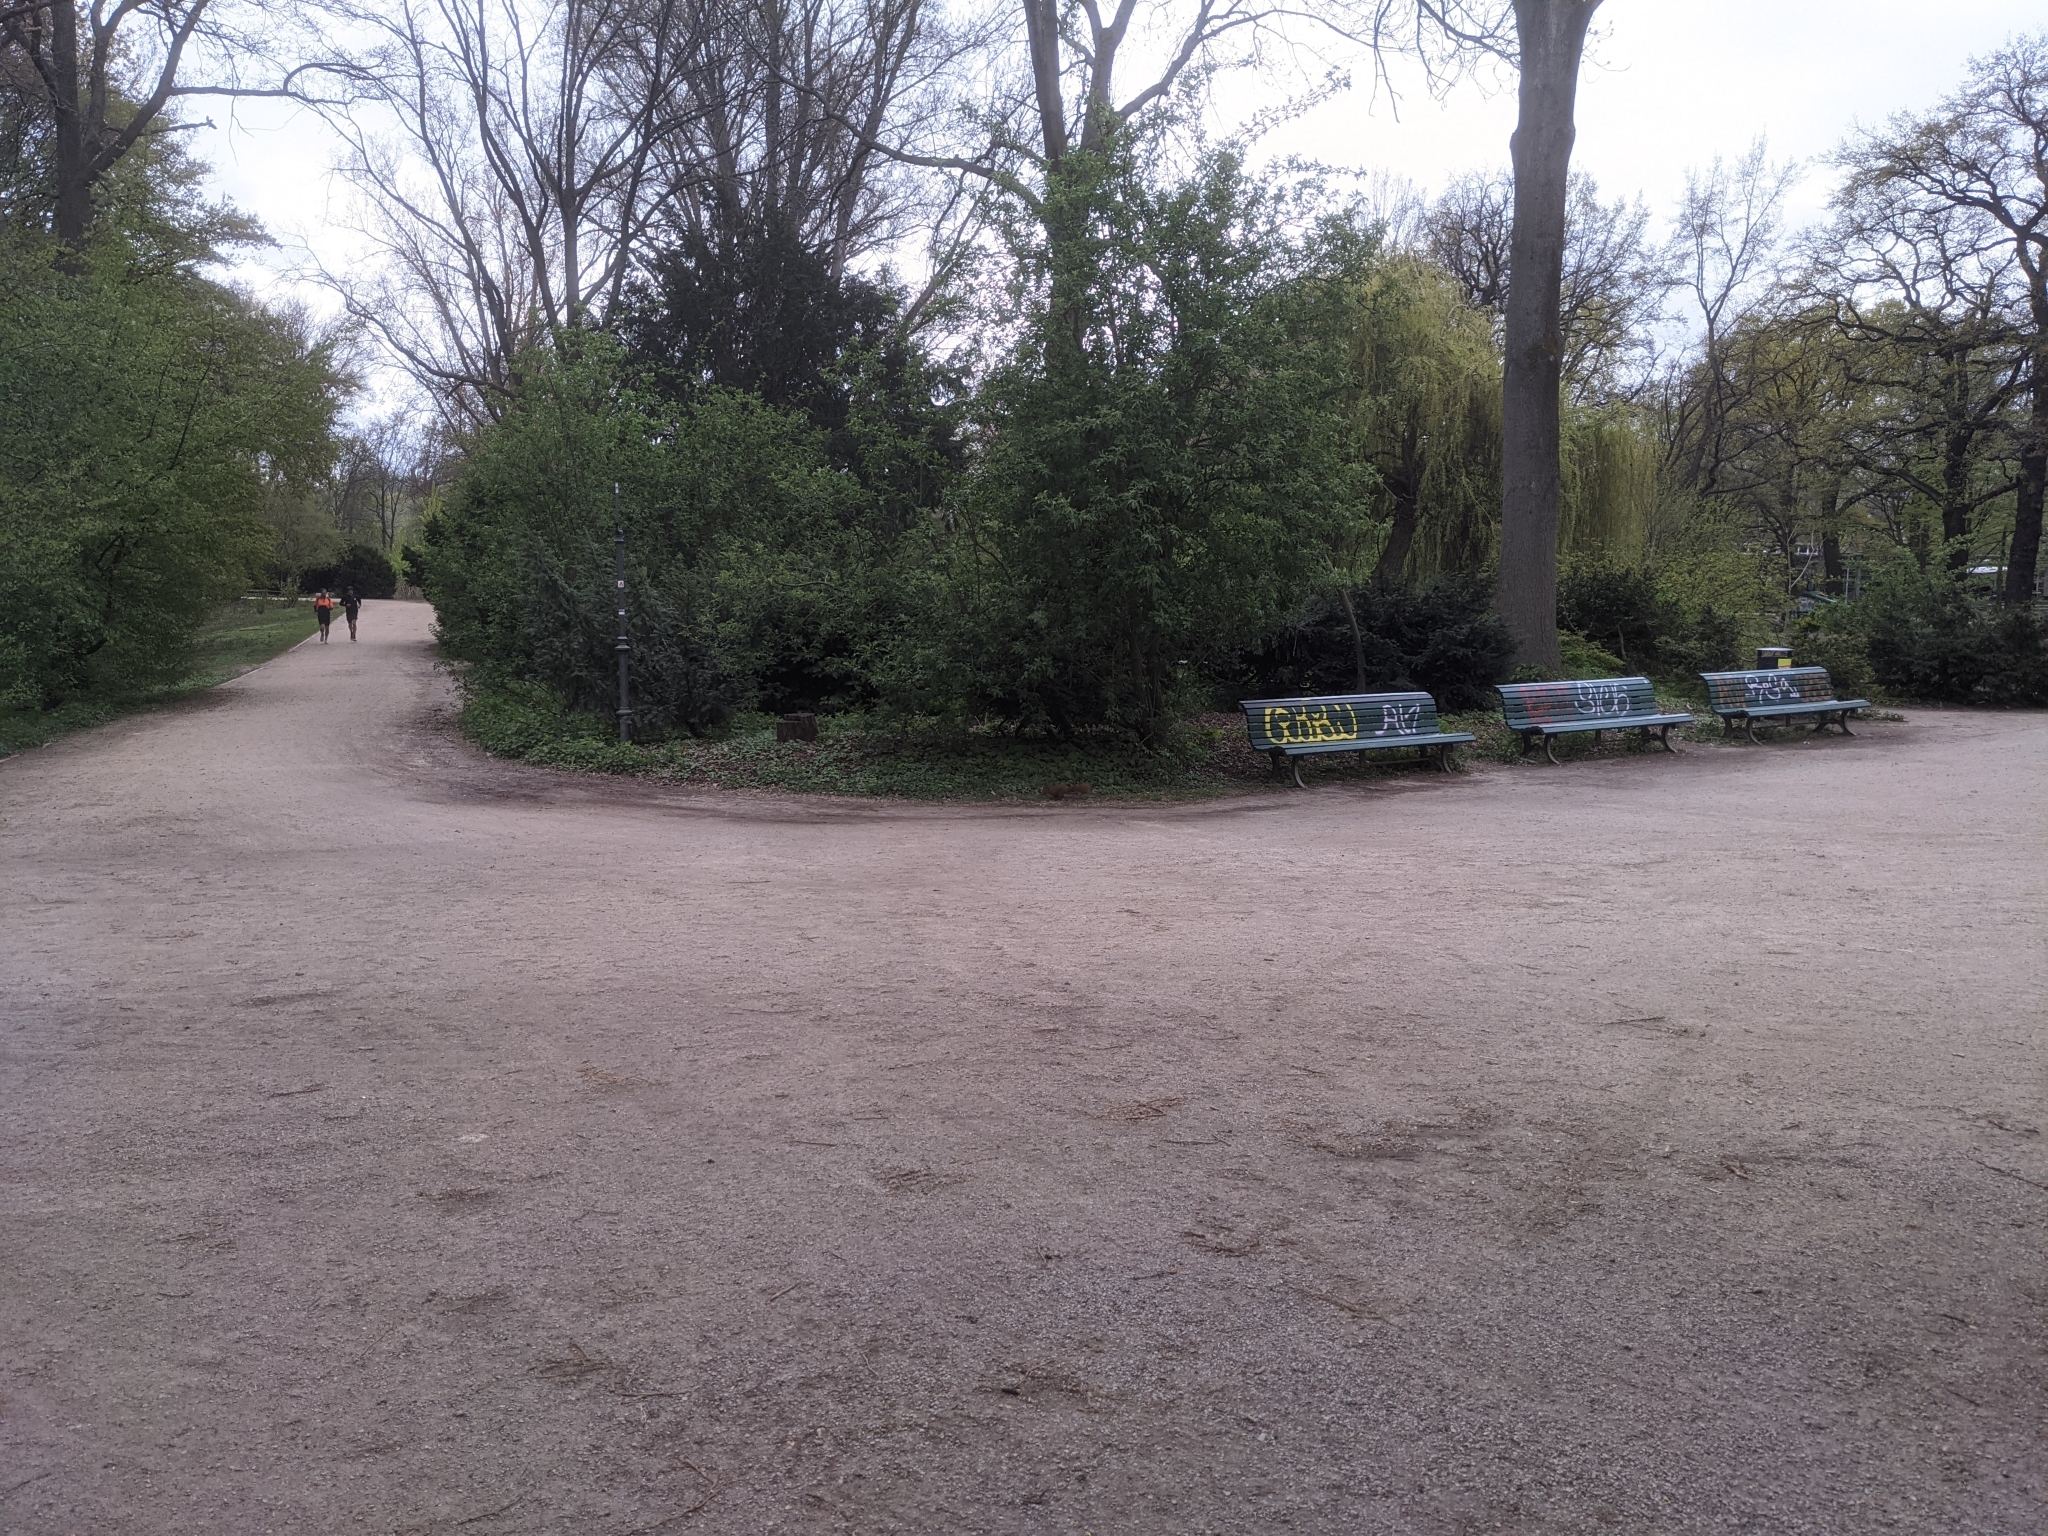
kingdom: Animalia
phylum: Chordata
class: Mammalia
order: Rodentia
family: Sciuridae
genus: Sciurus
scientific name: Sciurus vulgaris
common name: Eurasian red squirrel
